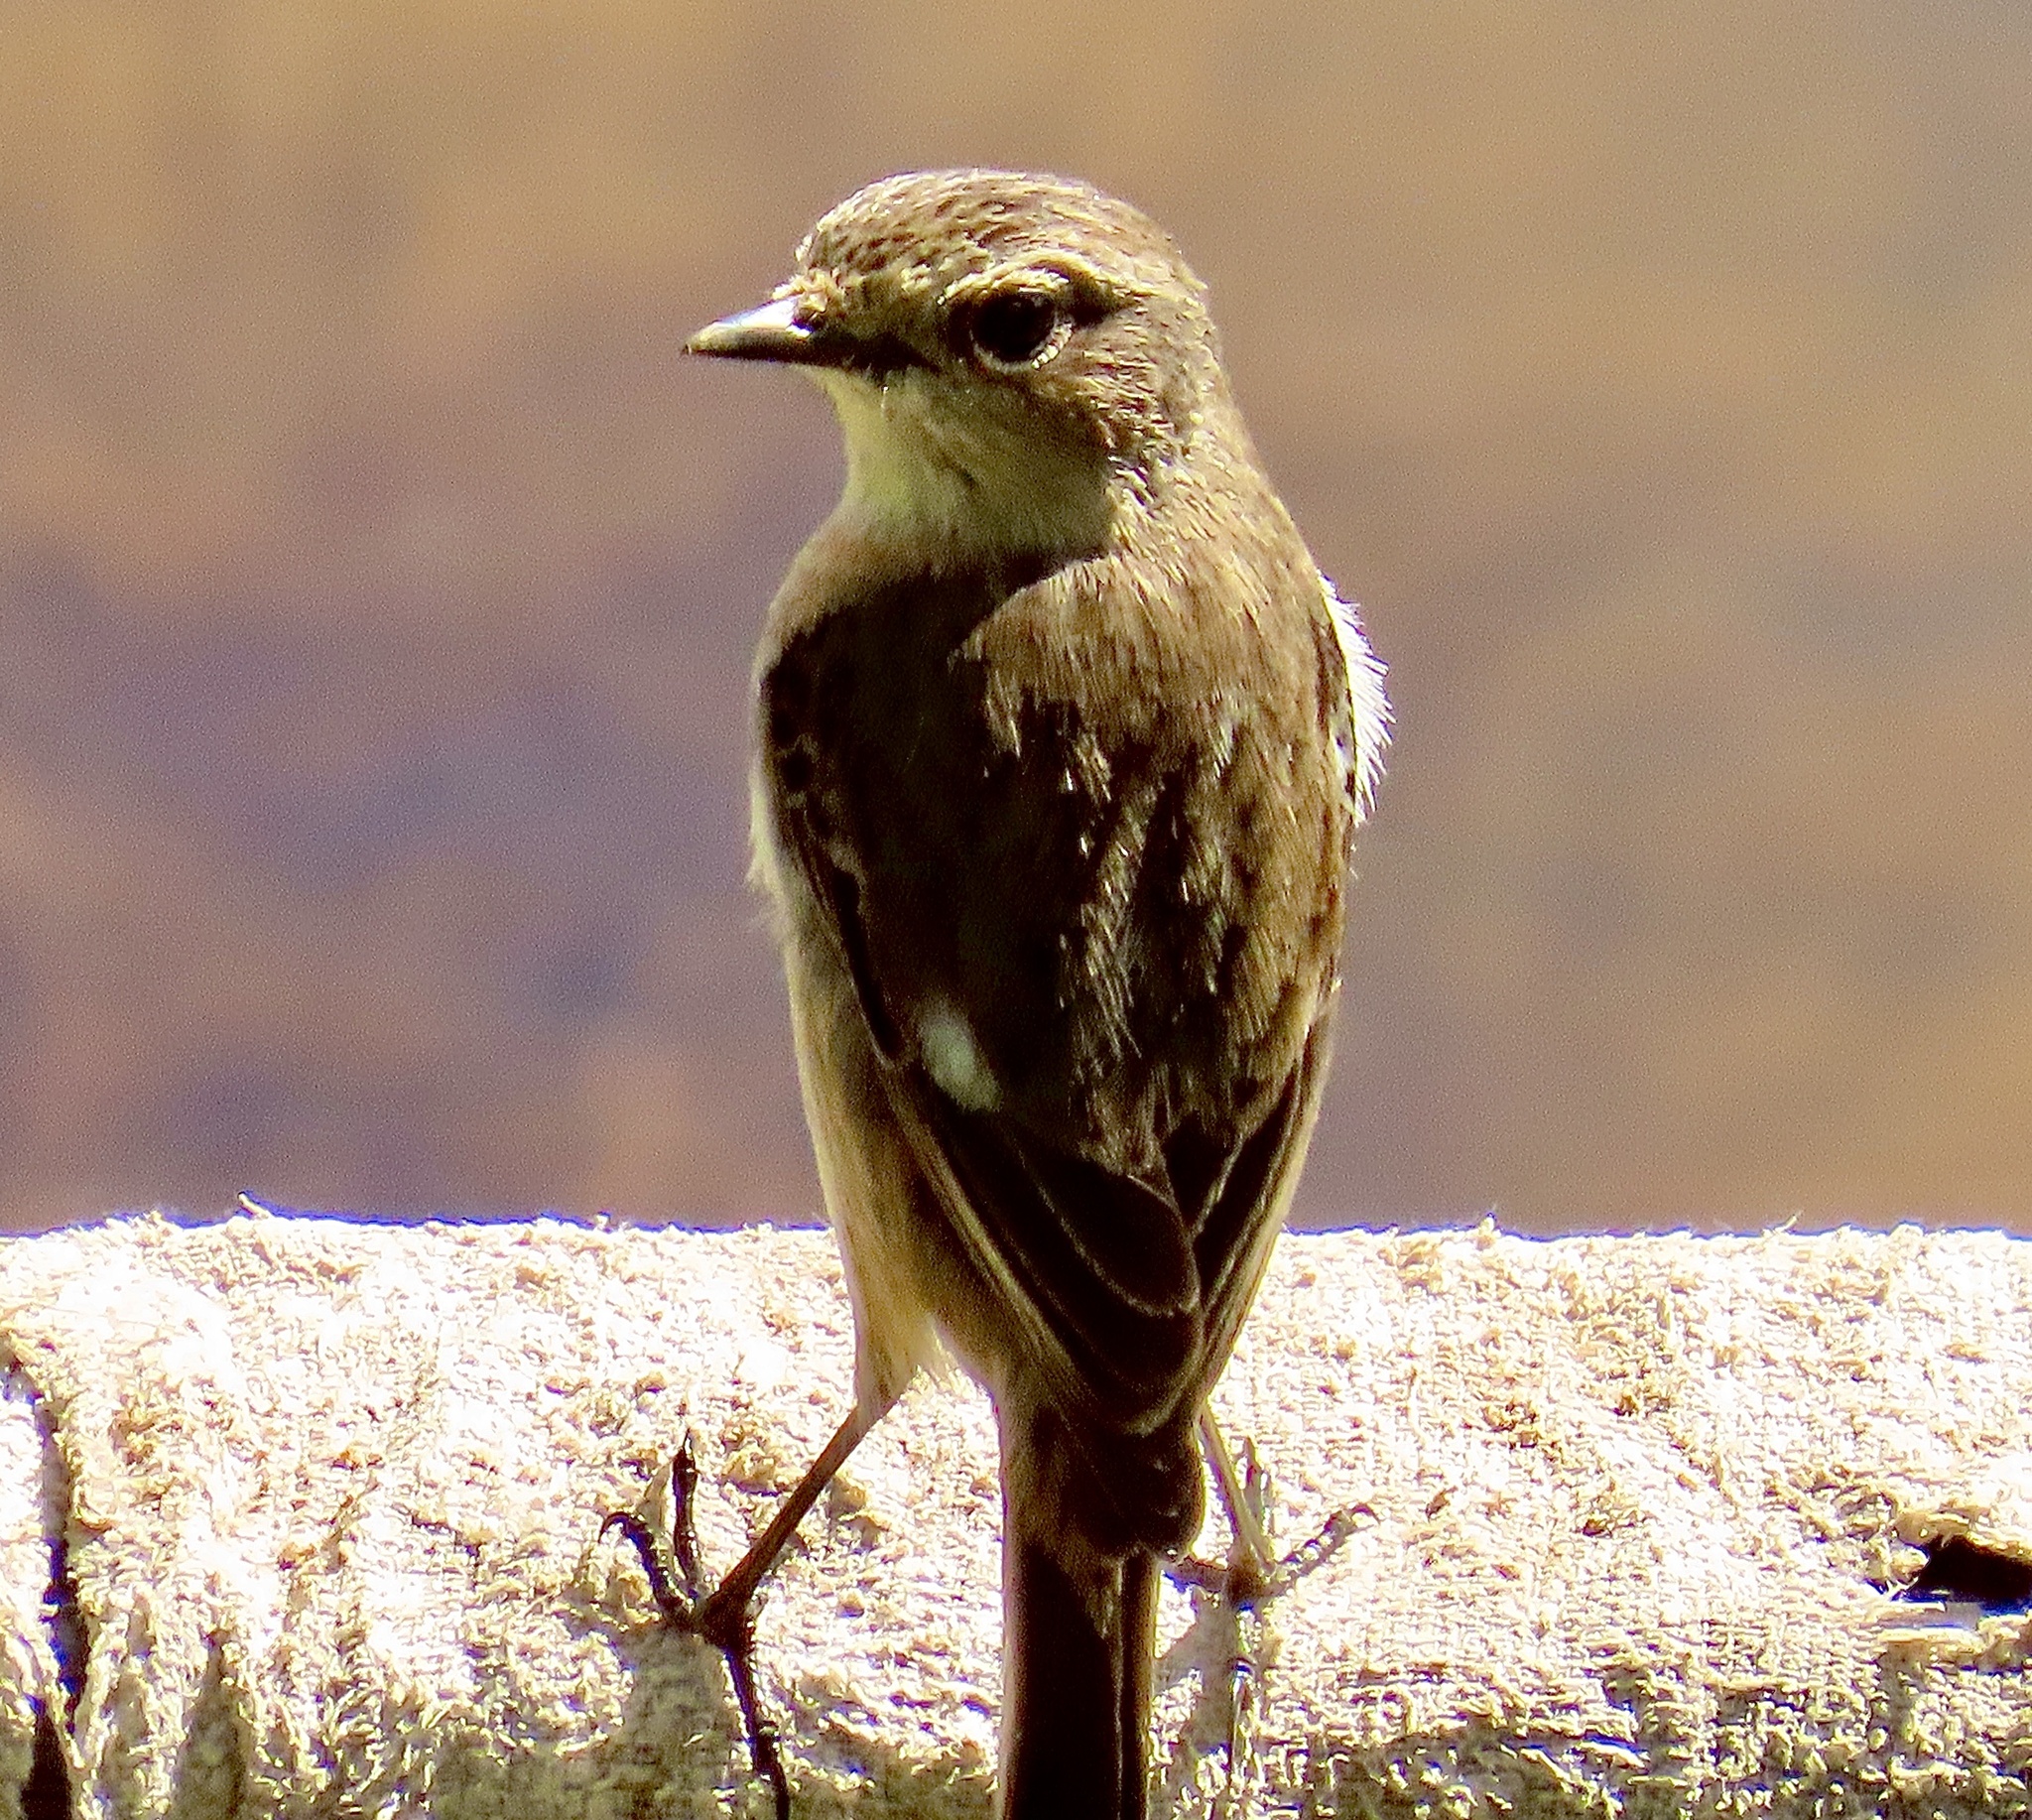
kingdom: Animalia
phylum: Chordata
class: Aves
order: Passeriformes
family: Muscicapidae
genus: Saxicola
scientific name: Saxicola torquatus
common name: African stonechat
